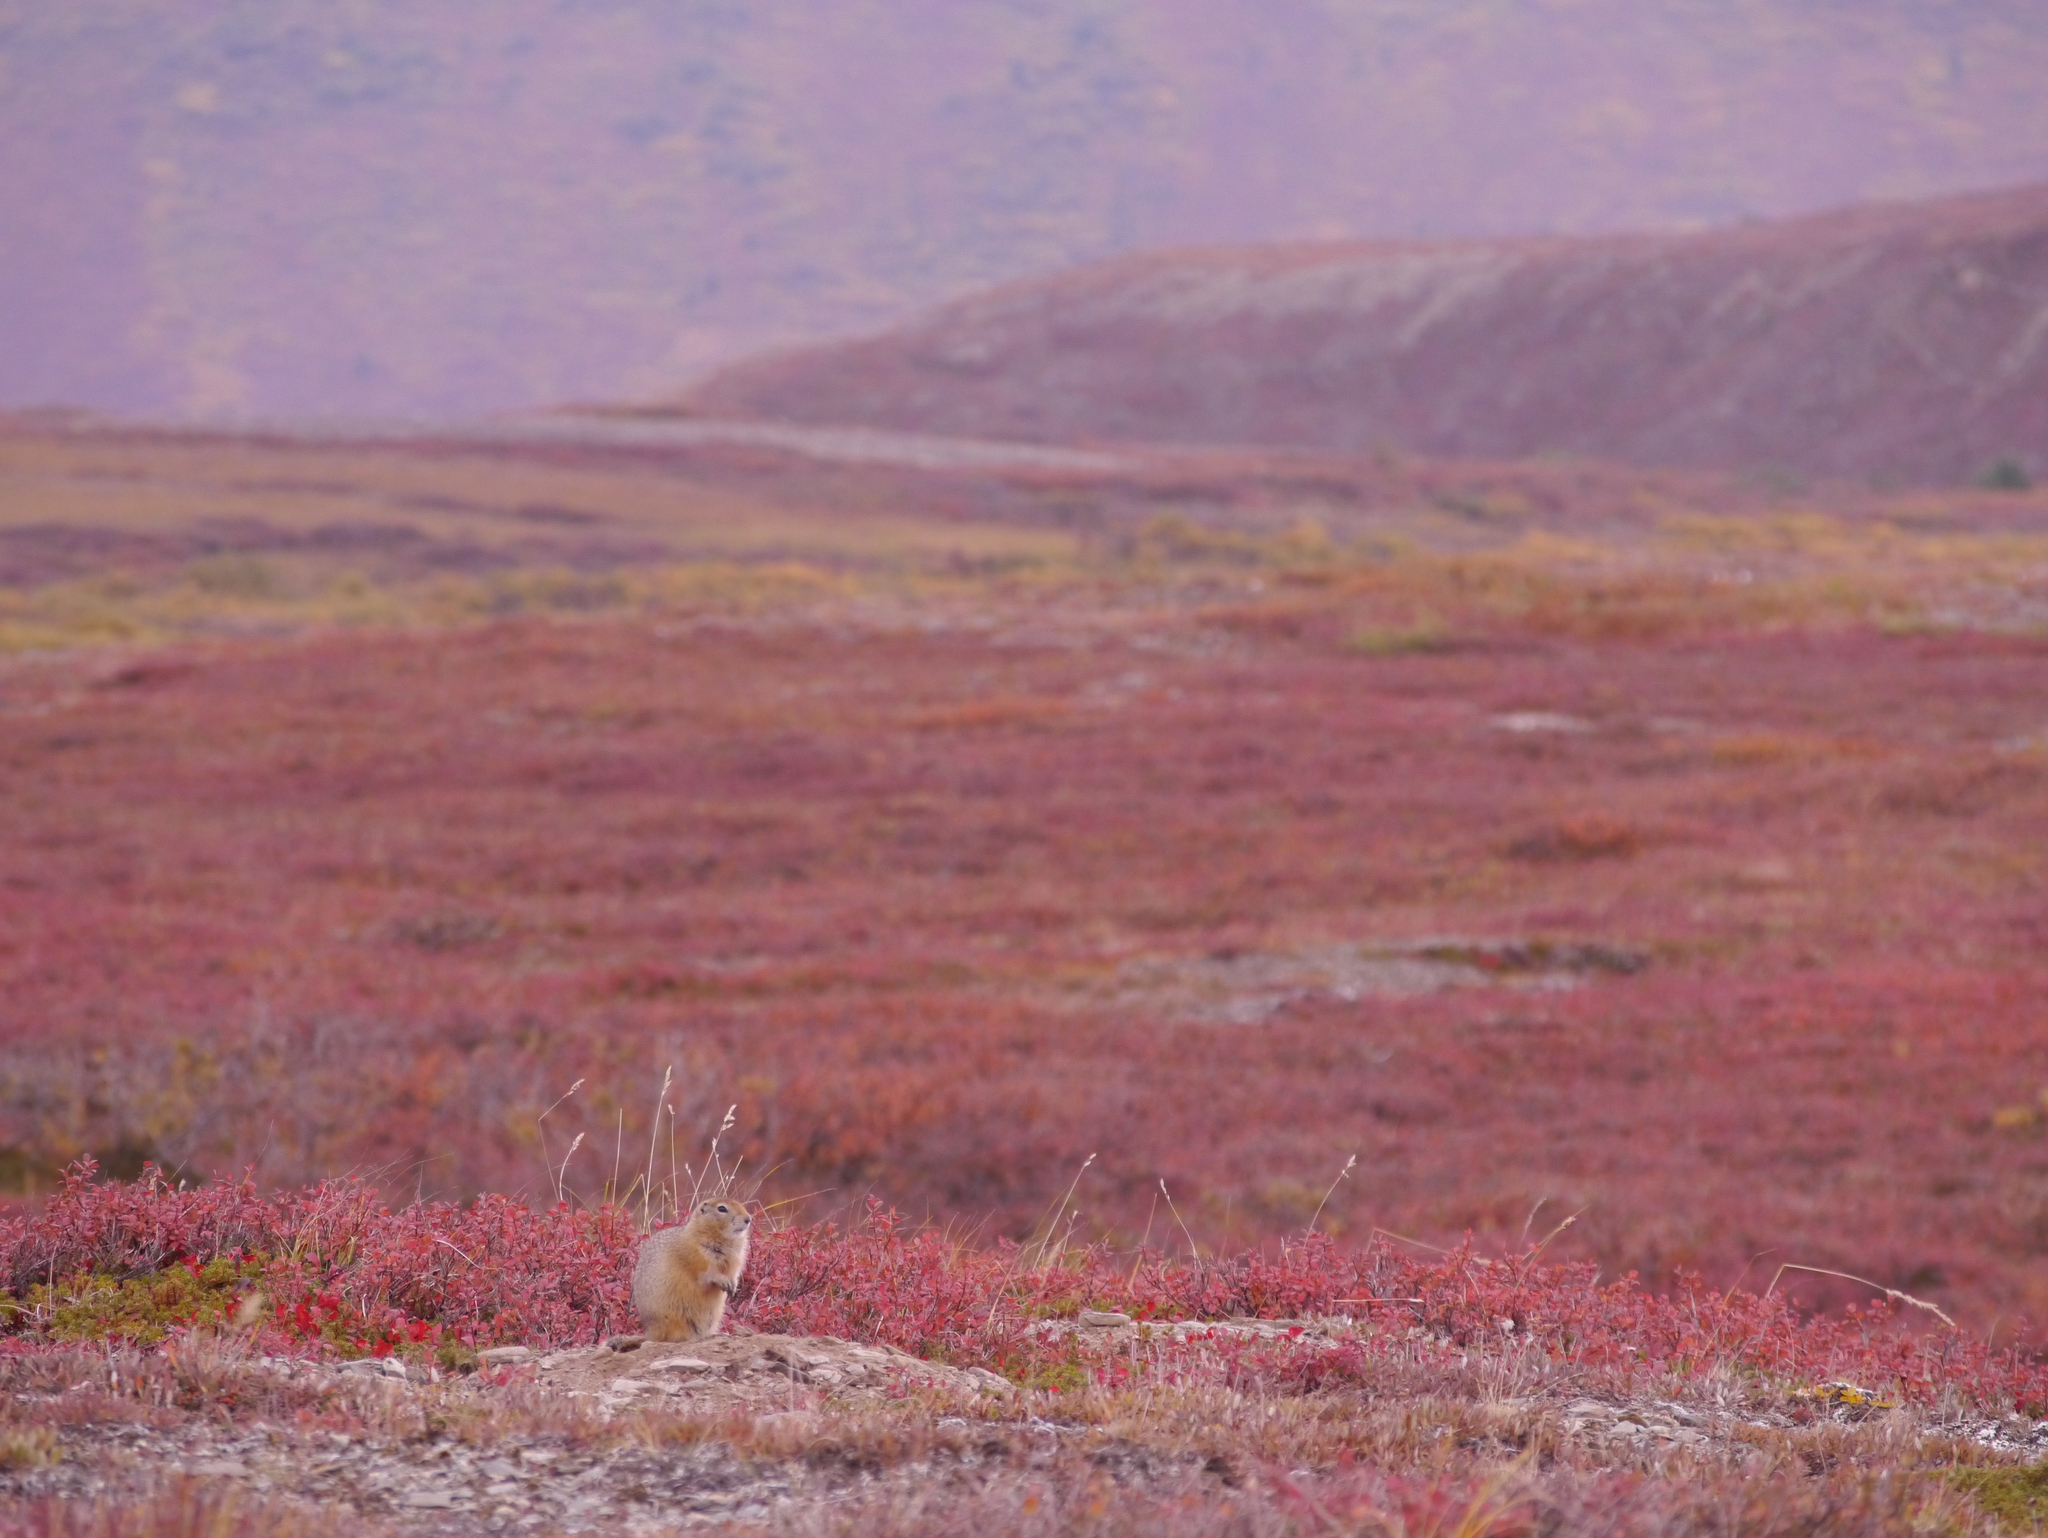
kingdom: Animalia
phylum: Chordata
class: Mammalia
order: Rodentia
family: Sciuridae
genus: Urocitellus
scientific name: Urocitellus parryii
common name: Arctic ground squirrel
